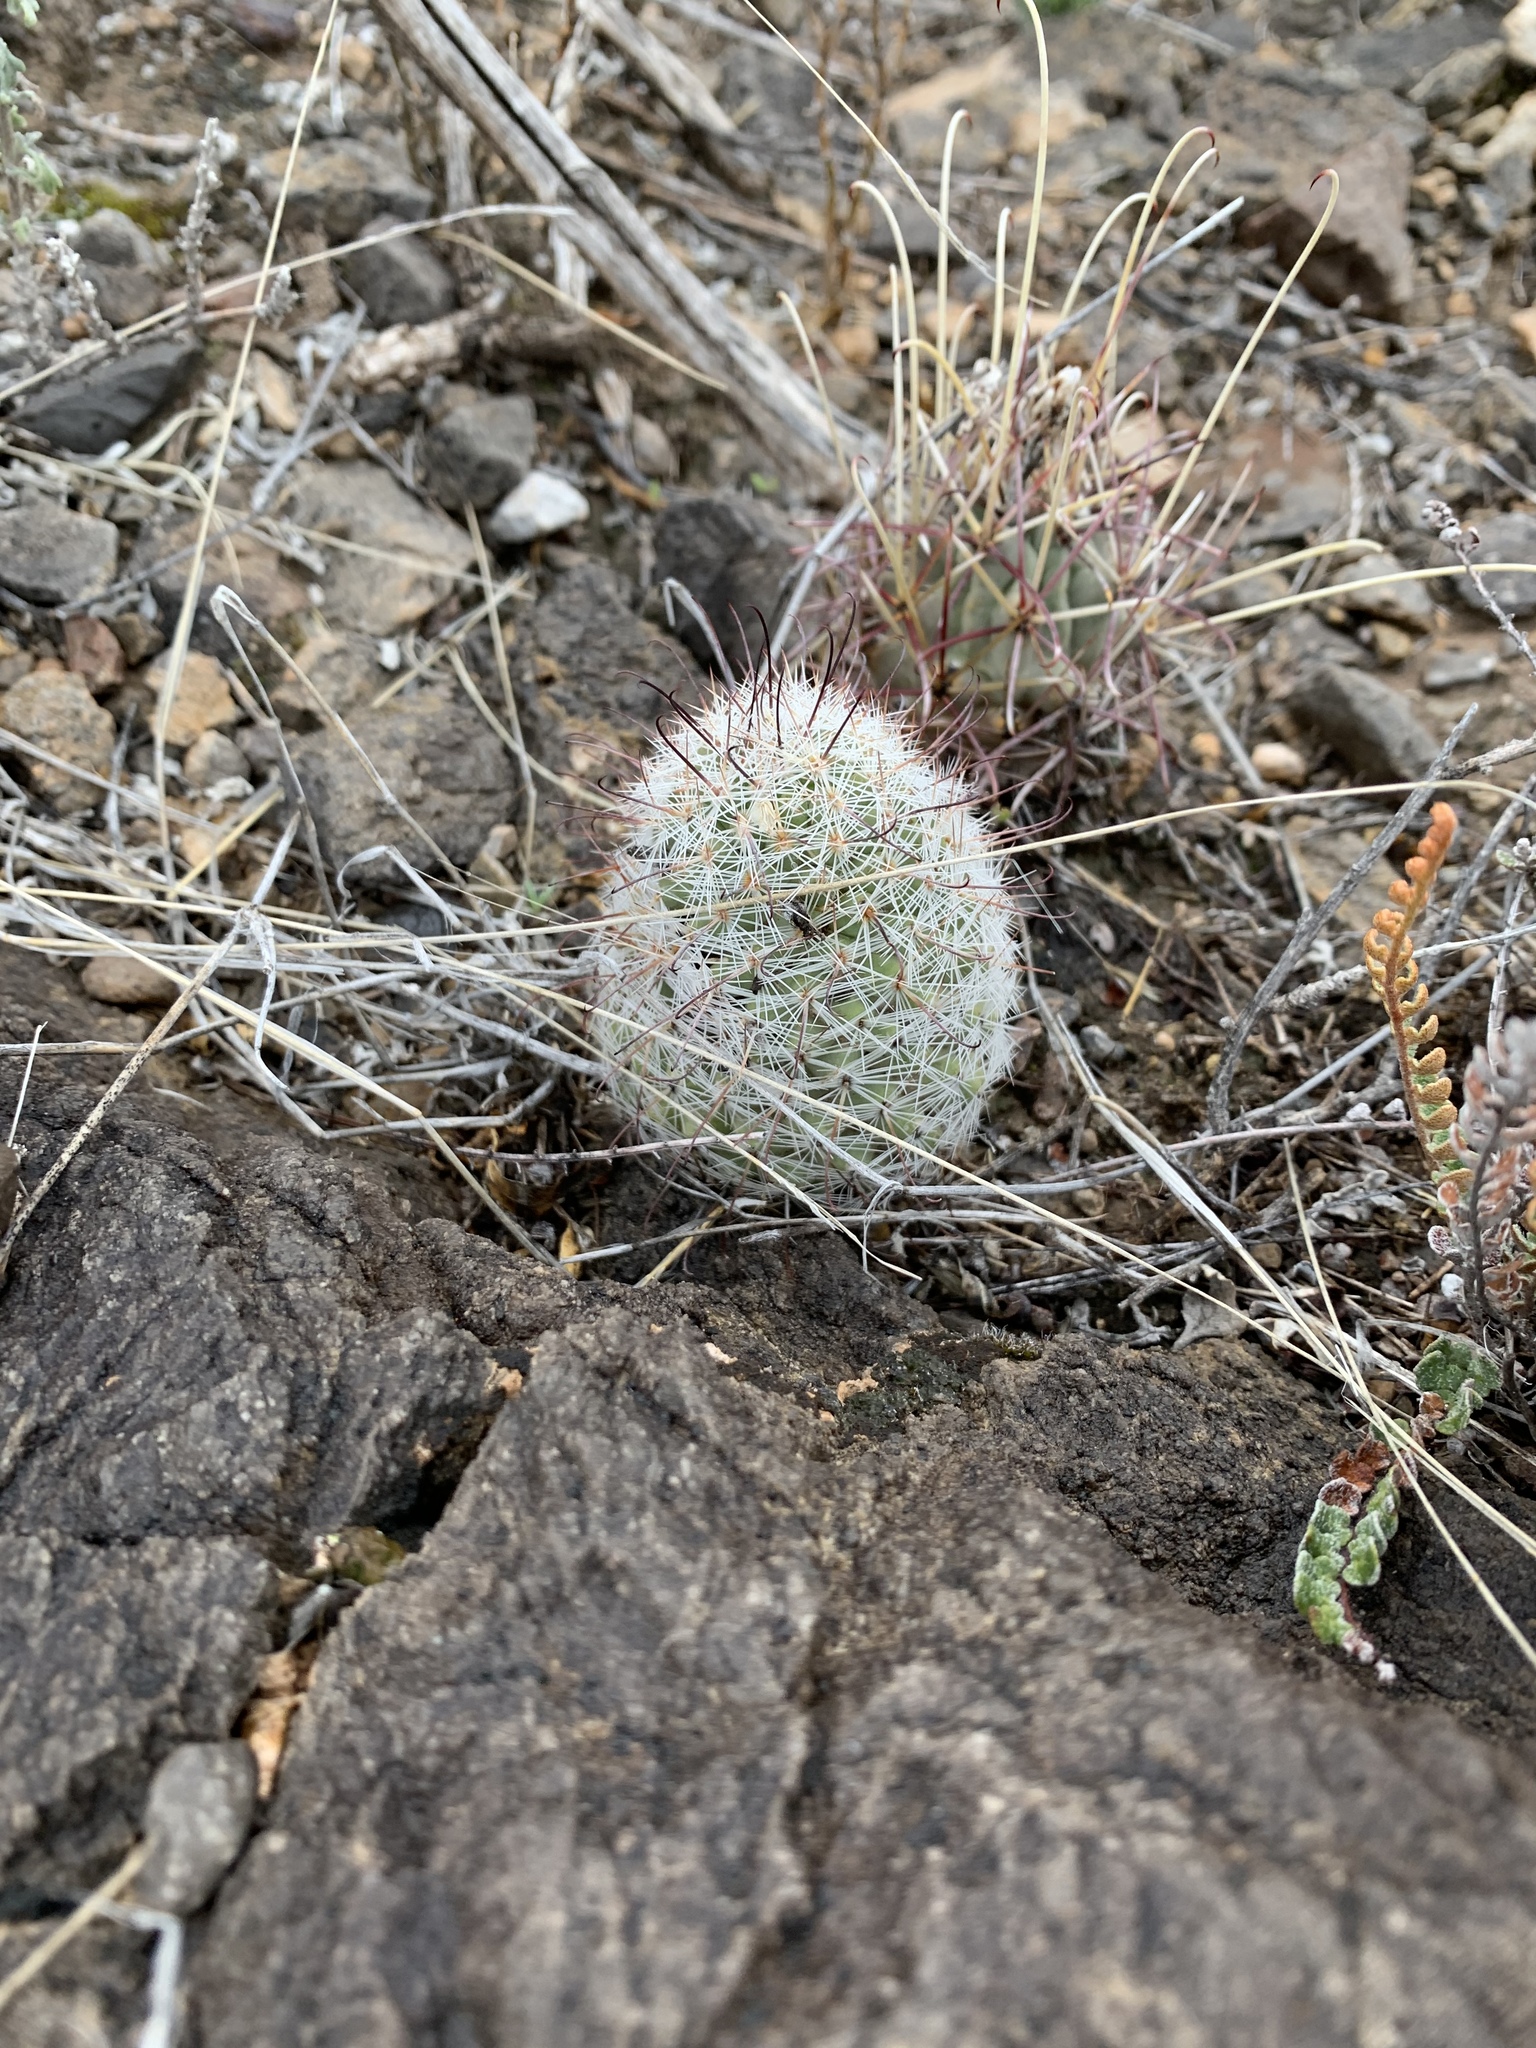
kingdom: Plantae
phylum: Tracheophyta
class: Magnoliopsida
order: Caryophyllales
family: Cactaceae
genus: Cochemiea
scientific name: Cochemiea grahamii
